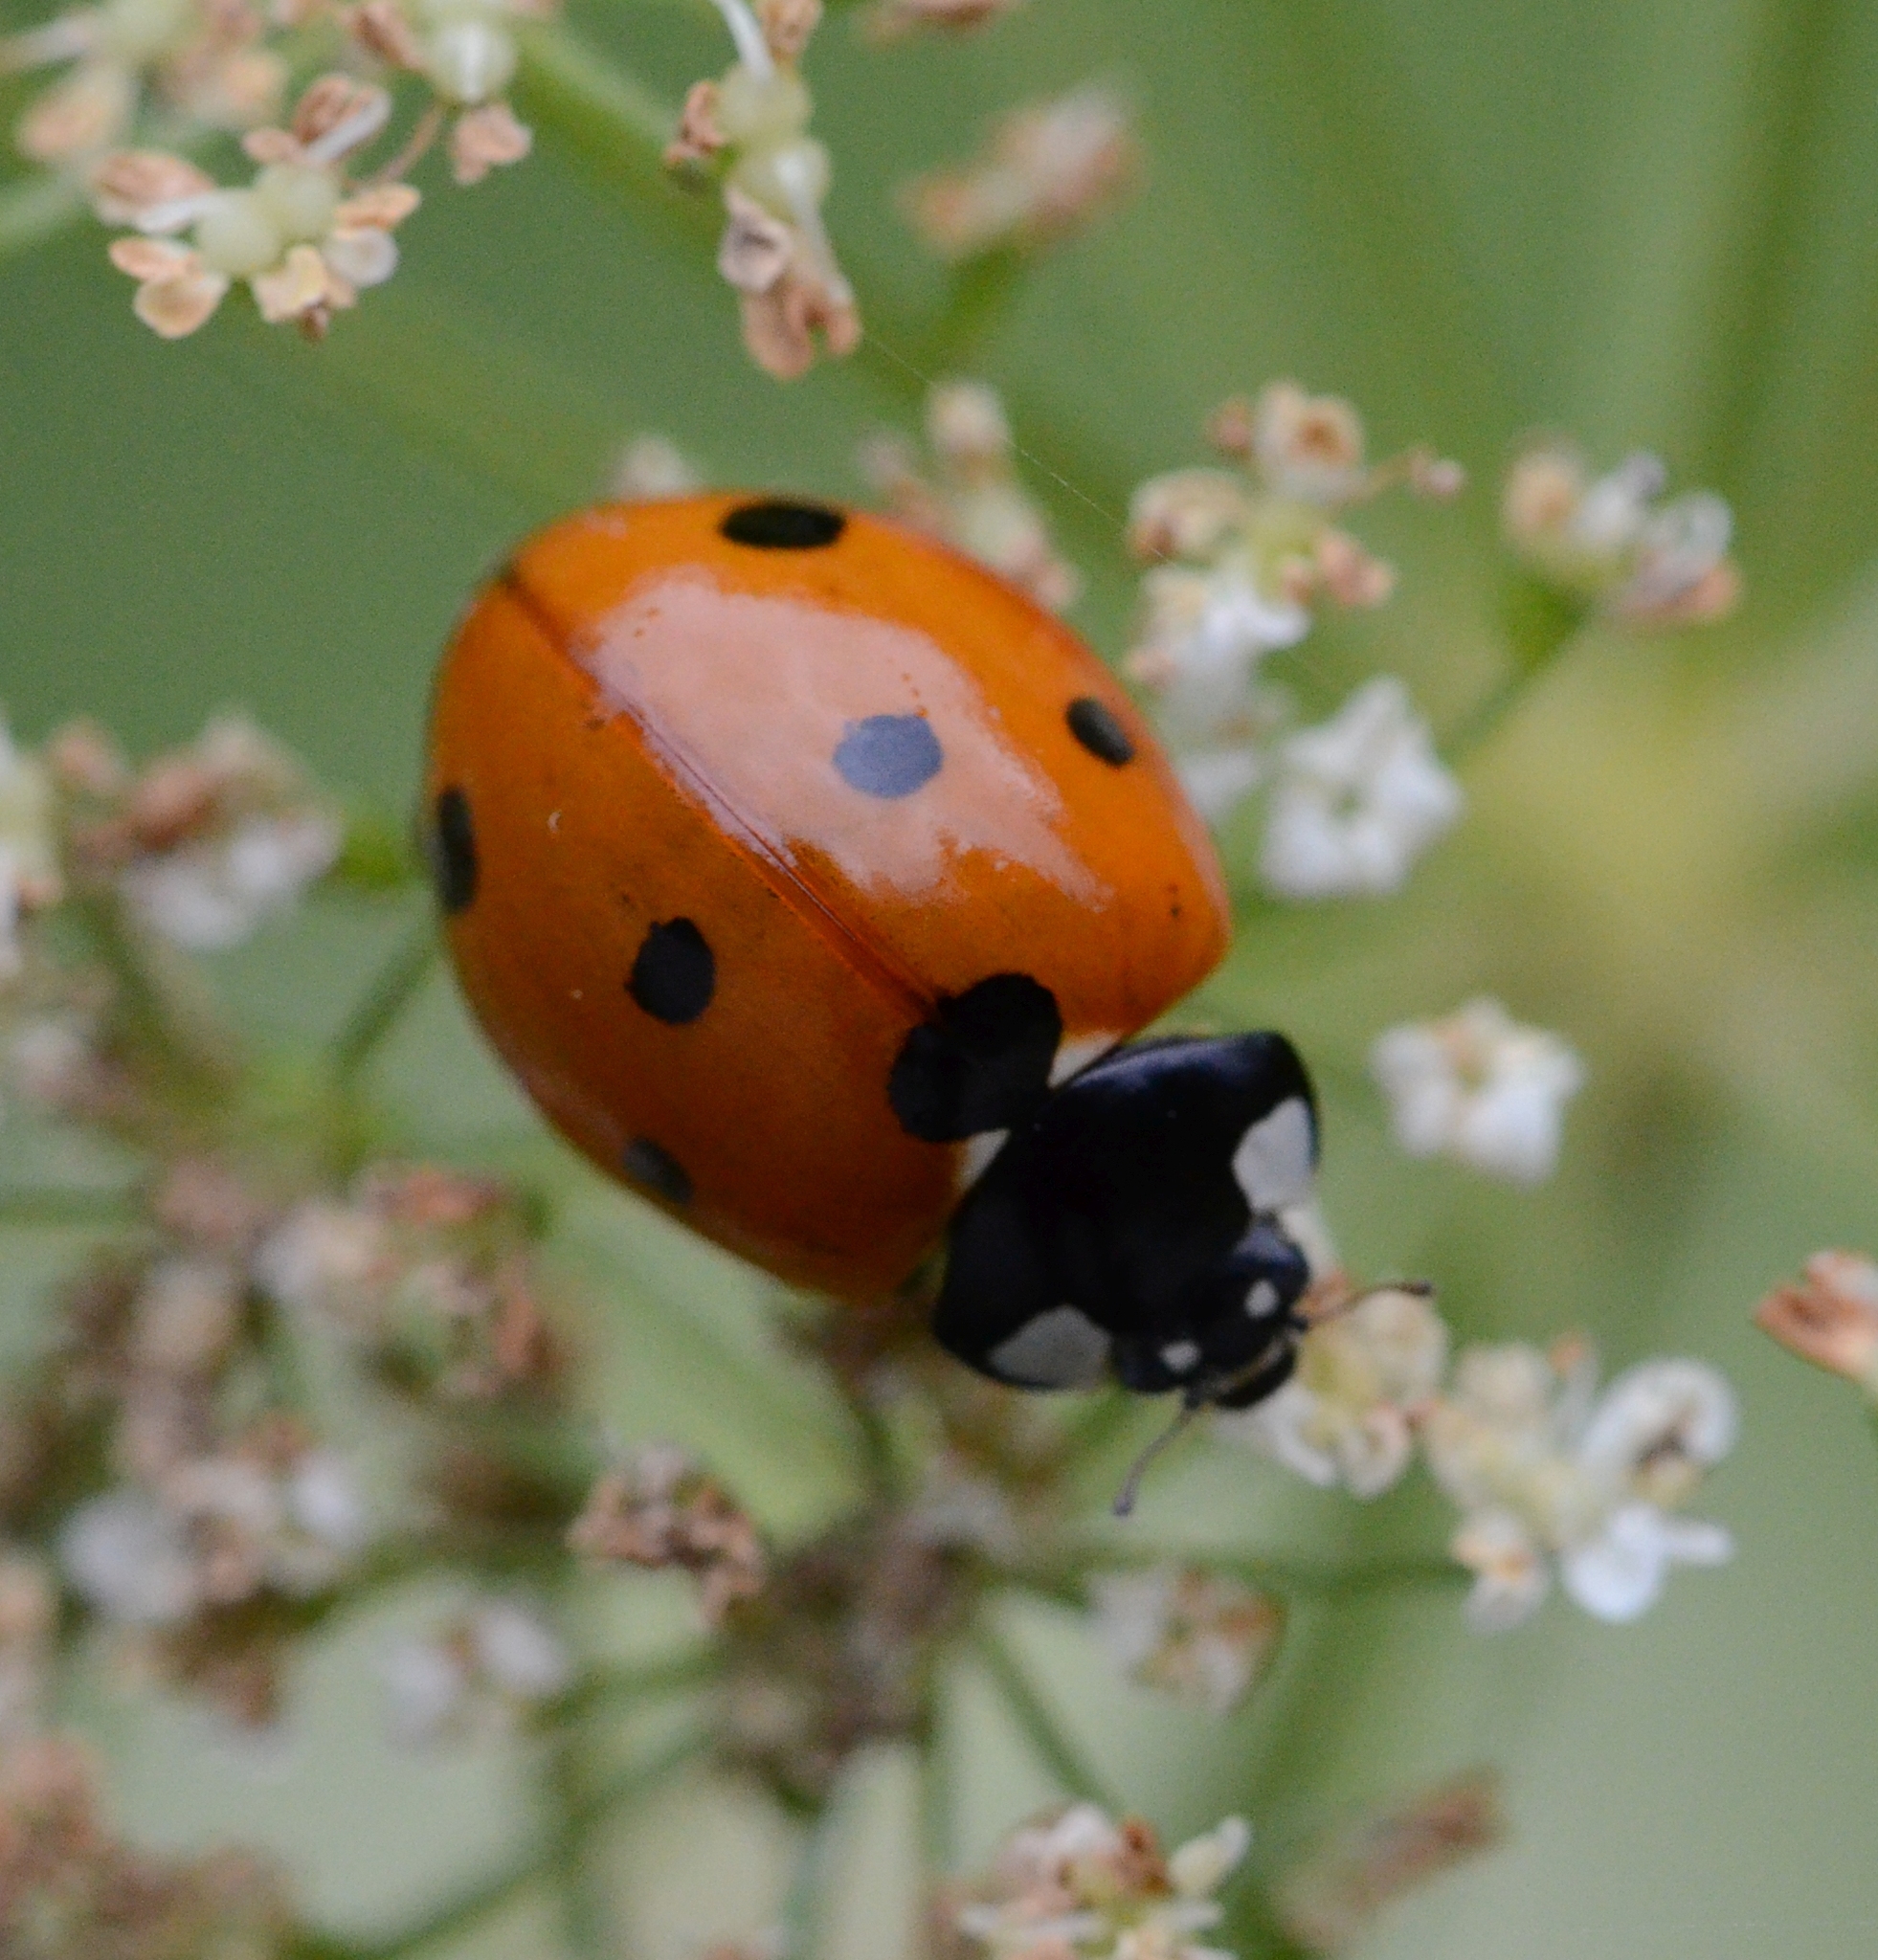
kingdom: Animalia
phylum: Arthropoda
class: Insecta
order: Coleoptera
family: Coccinellidae
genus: Coccinella
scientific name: Coccinella septempunctata
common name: Sevenspotted lady beetle
